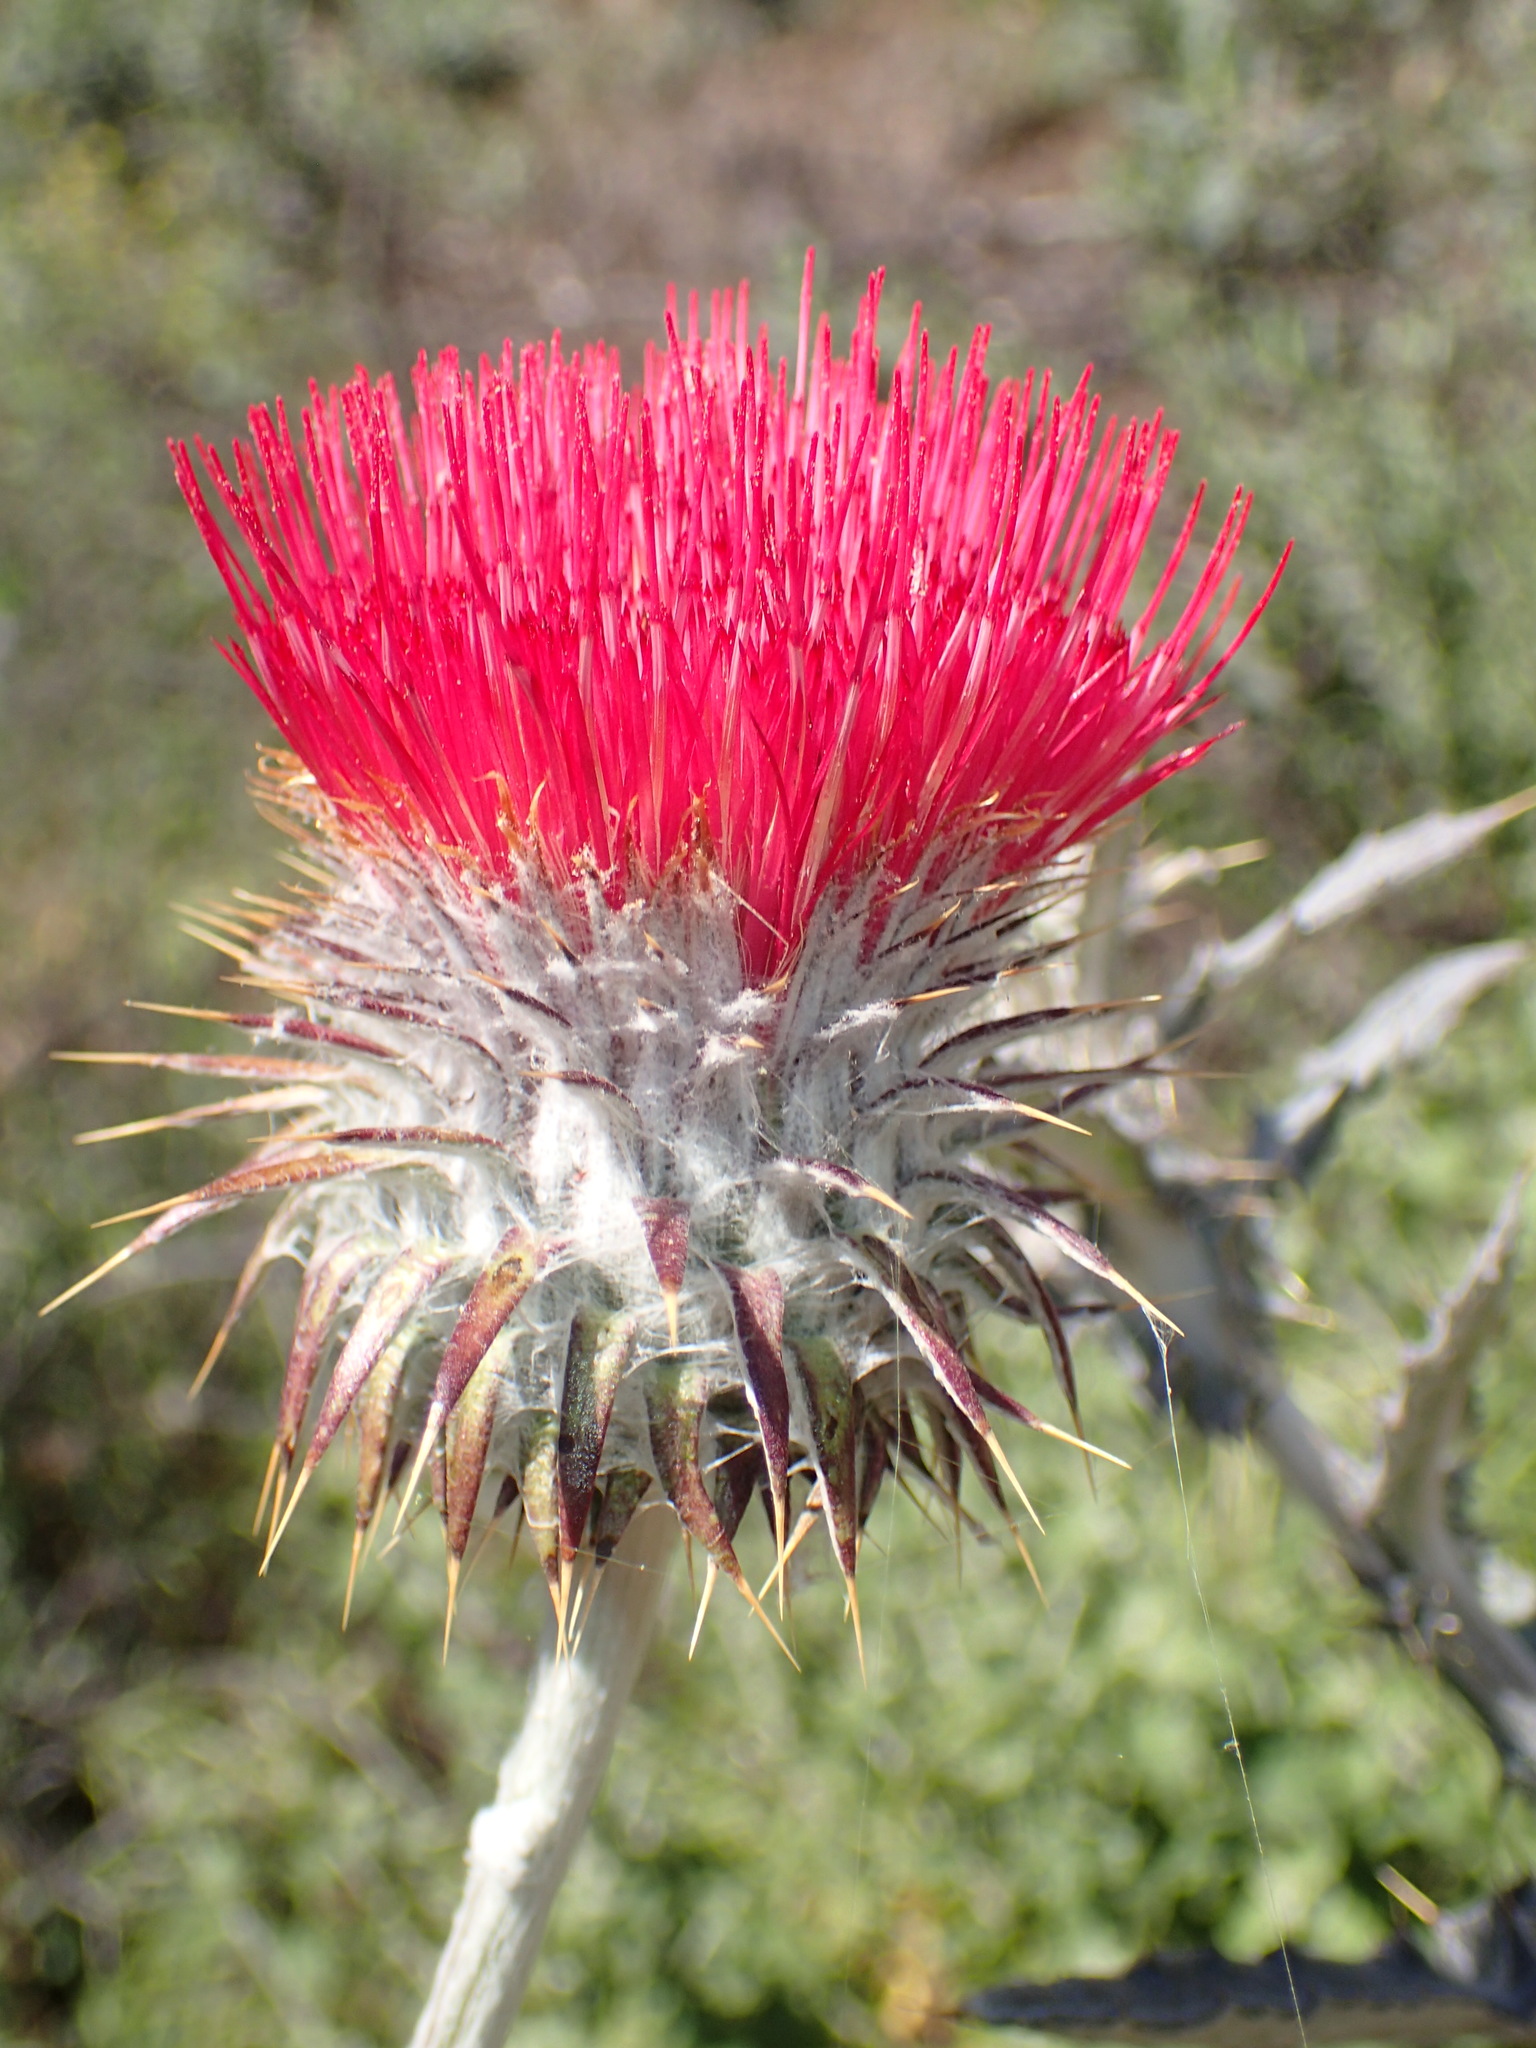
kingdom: Plantae
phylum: Tracheophyta
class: Magnoliopsida
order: Asterales
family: Asteraceae
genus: Cirsium
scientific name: Cirsium occidentale
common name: Western thistle
